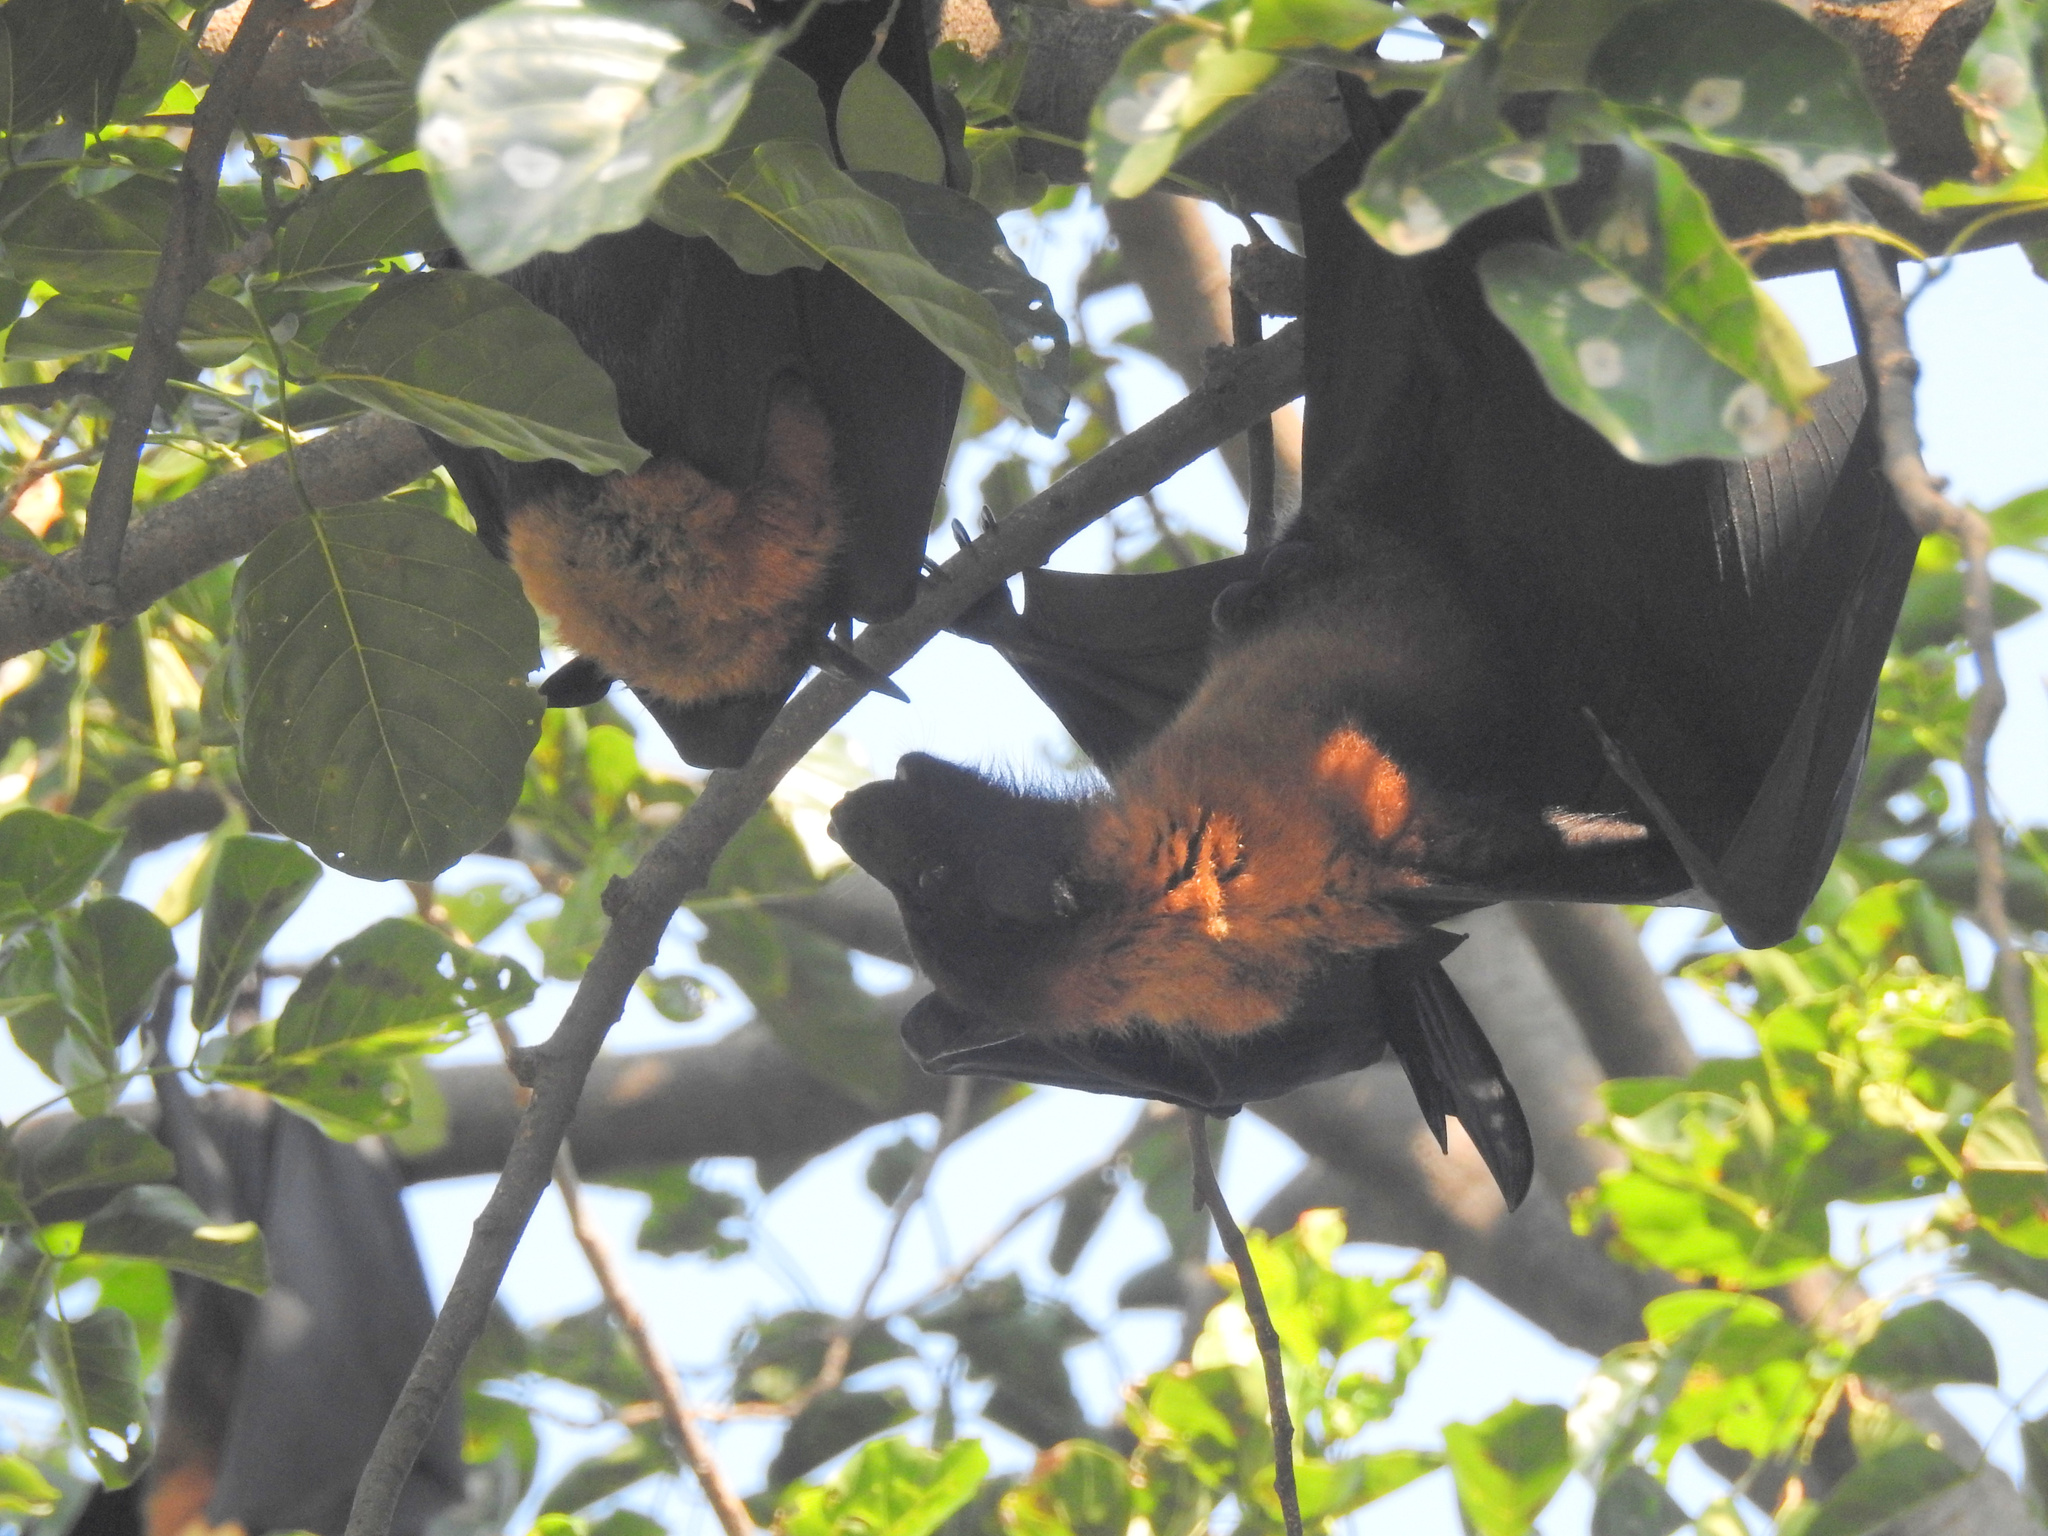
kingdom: Animalia
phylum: Chordata
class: Mammalia
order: Chiroptera
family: Pteropodidae
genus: Pteropus
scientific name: Pteropus vampyrus
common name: Large flying fox
